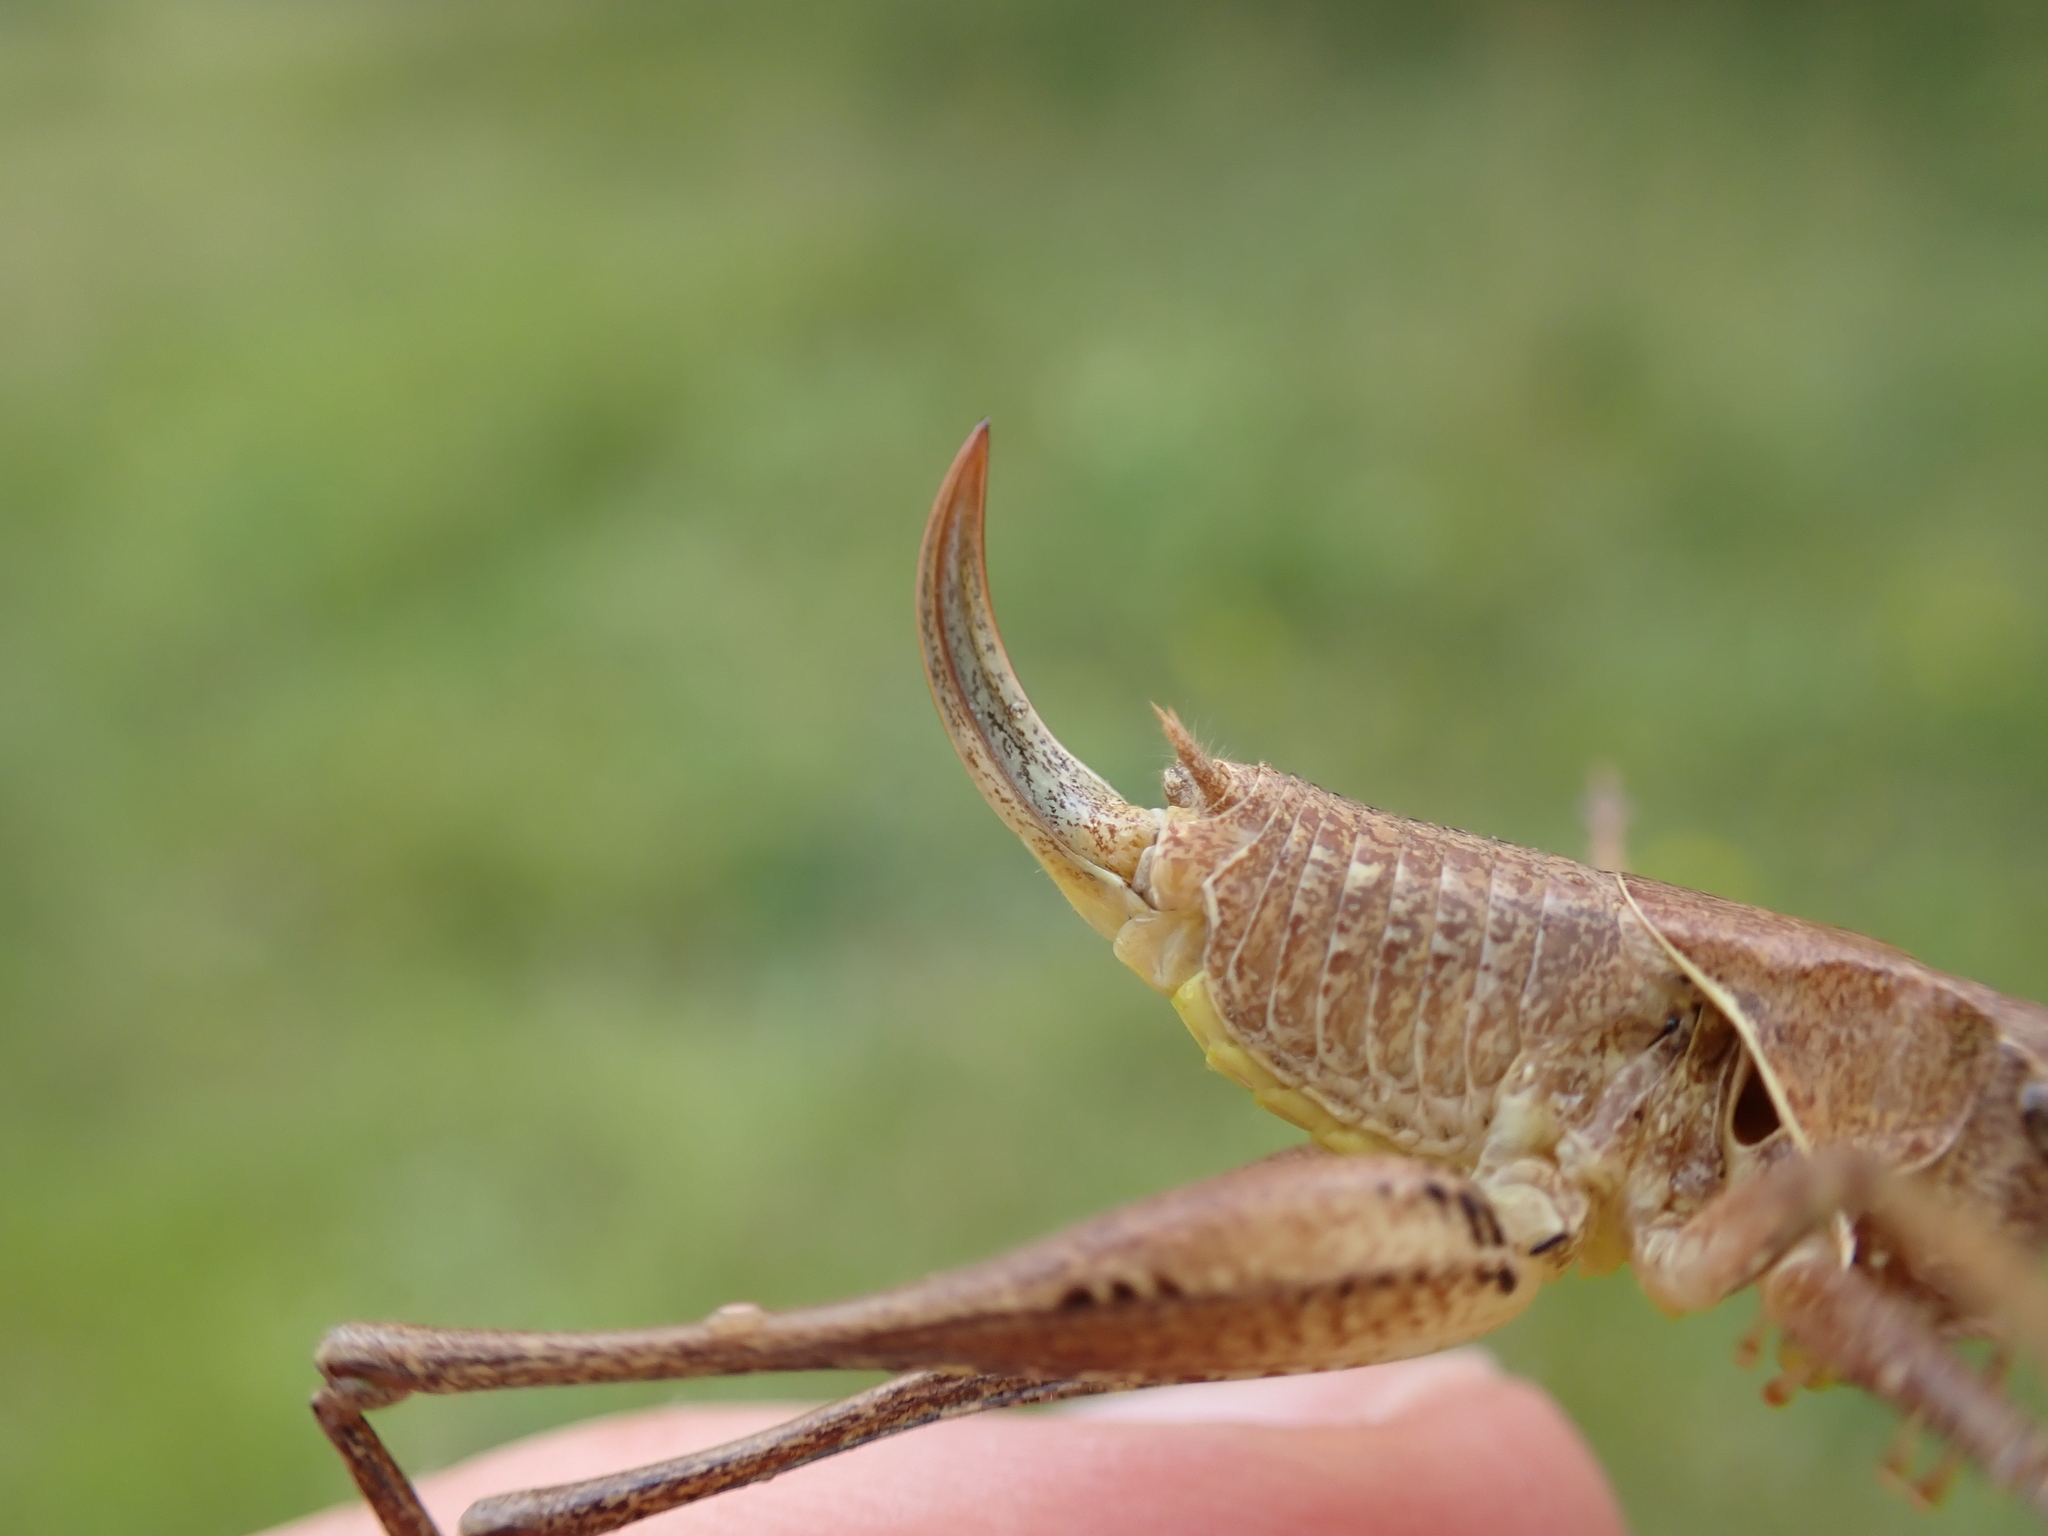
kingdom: Animalia
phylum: Arthropoda
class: Insecta
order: Orthoptera
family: Tettigoniidae
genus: Pholidoptera
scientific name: Pholidoptera griseoaptera
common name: Dark bush-cricket
